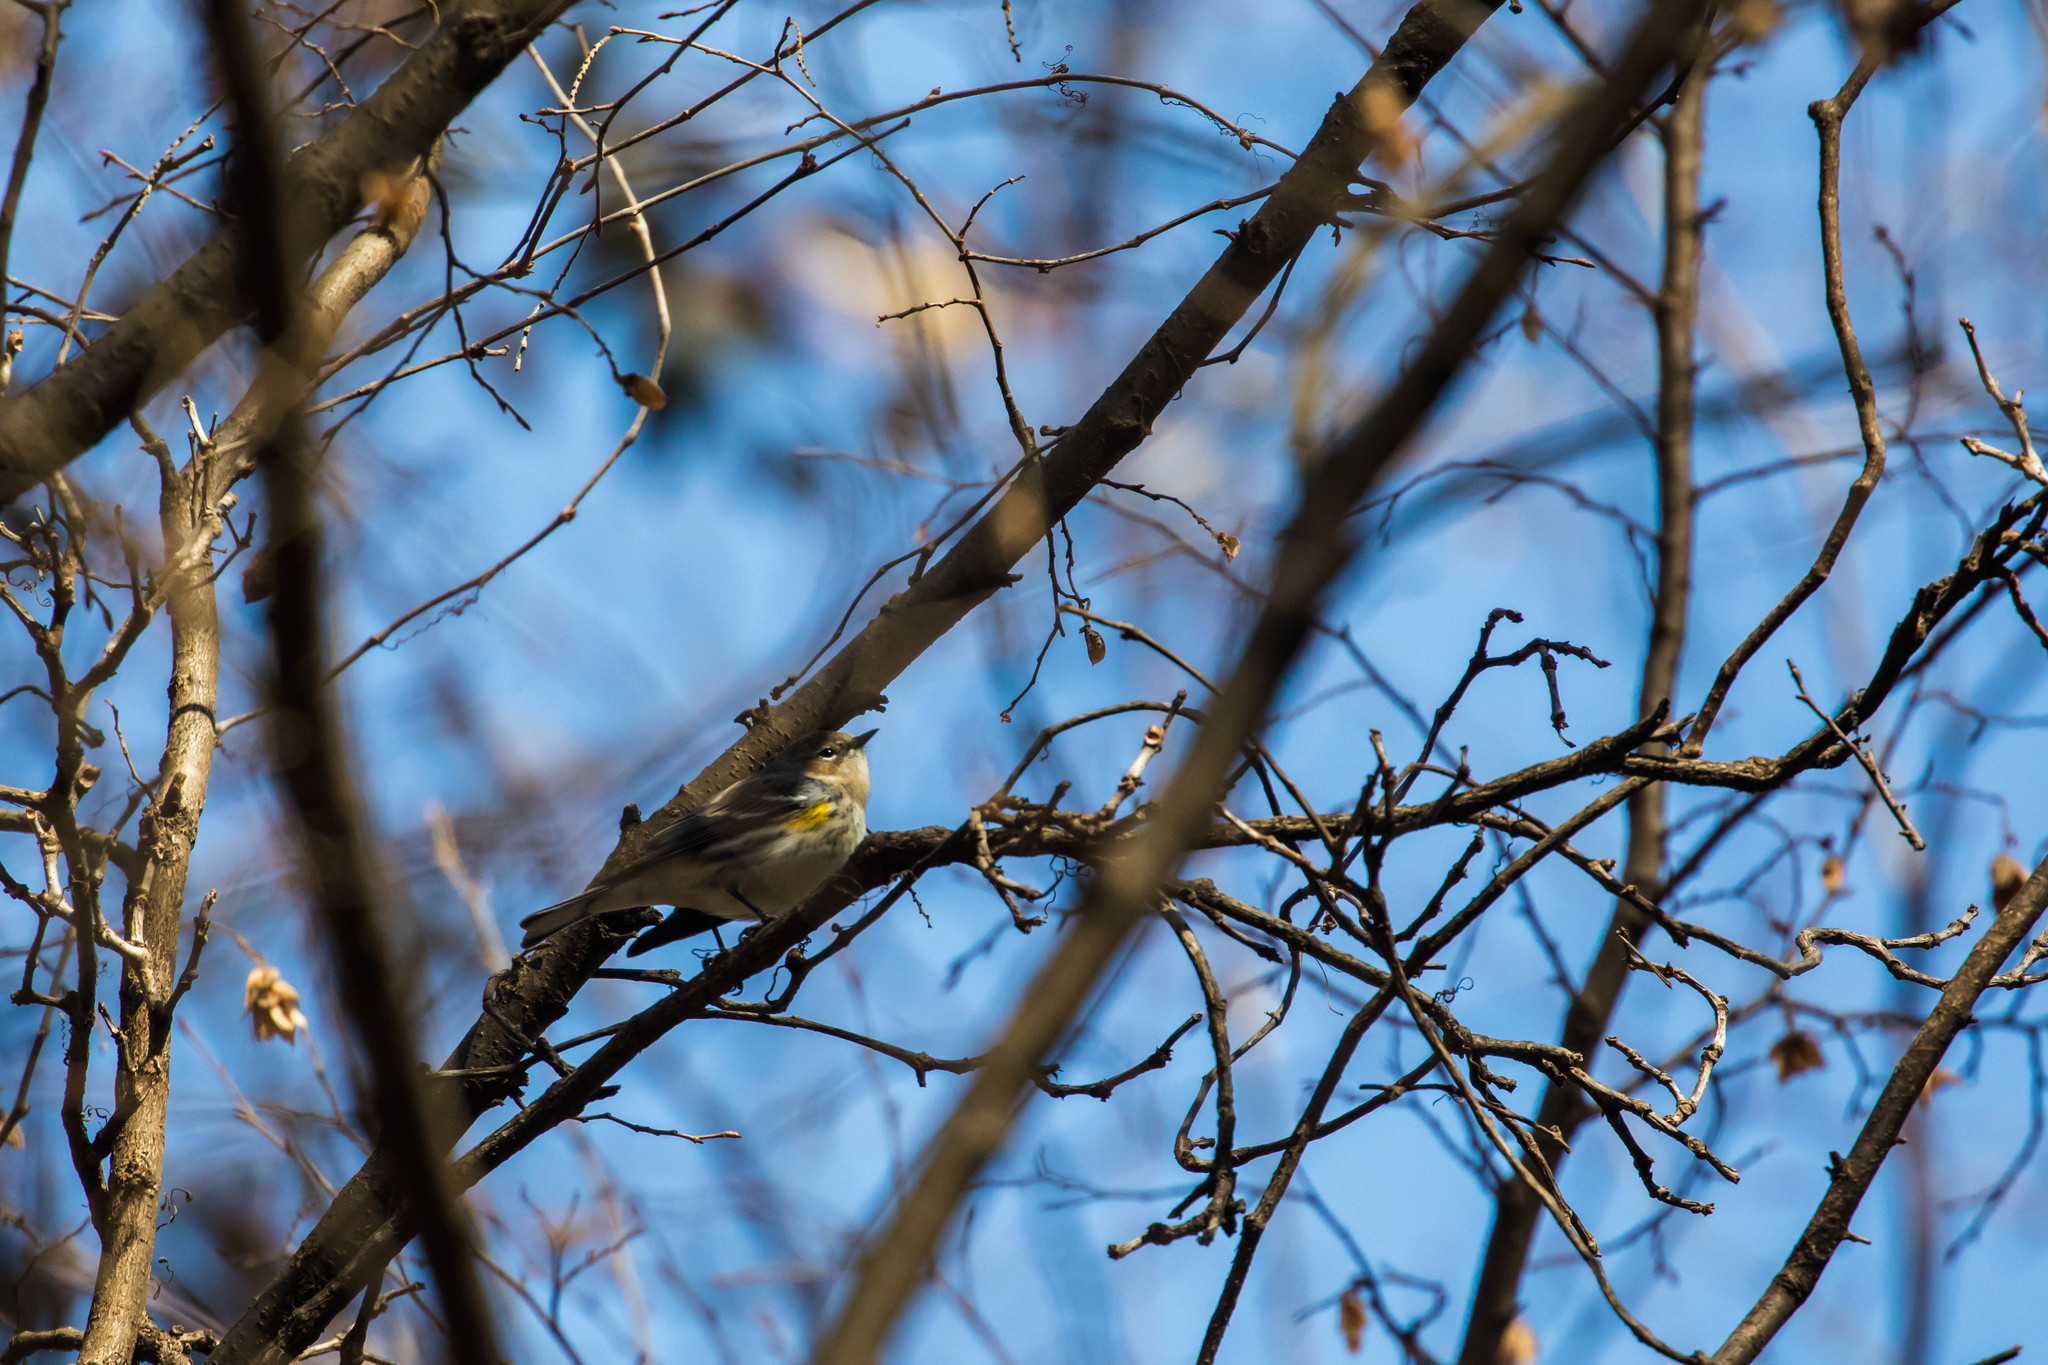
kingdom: Animalia
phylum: Chordata
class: Aves
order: Passeriformes
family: Parulidae
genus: Setophaga
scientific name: Setophaga coronata
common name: Myrtle warbler
